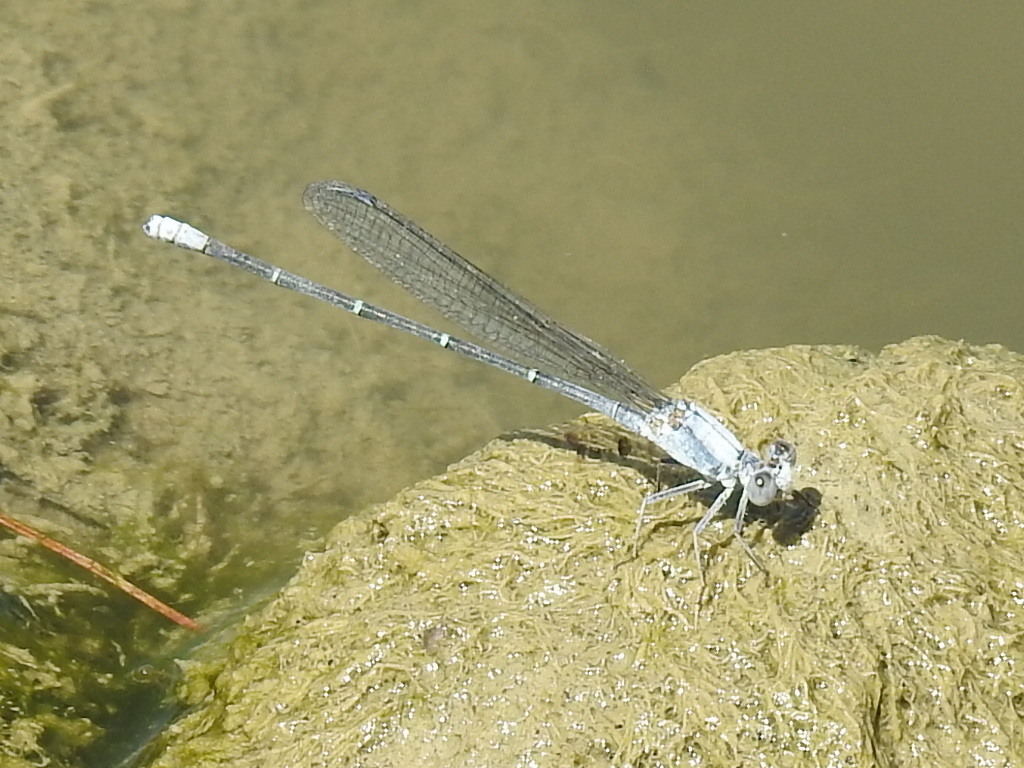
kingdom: Animalia
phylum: Arthropoda
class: Insecta
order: Odonata
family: Coenagrionidae
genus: Argia
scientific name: Argia moesta
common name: Powdered dancer
